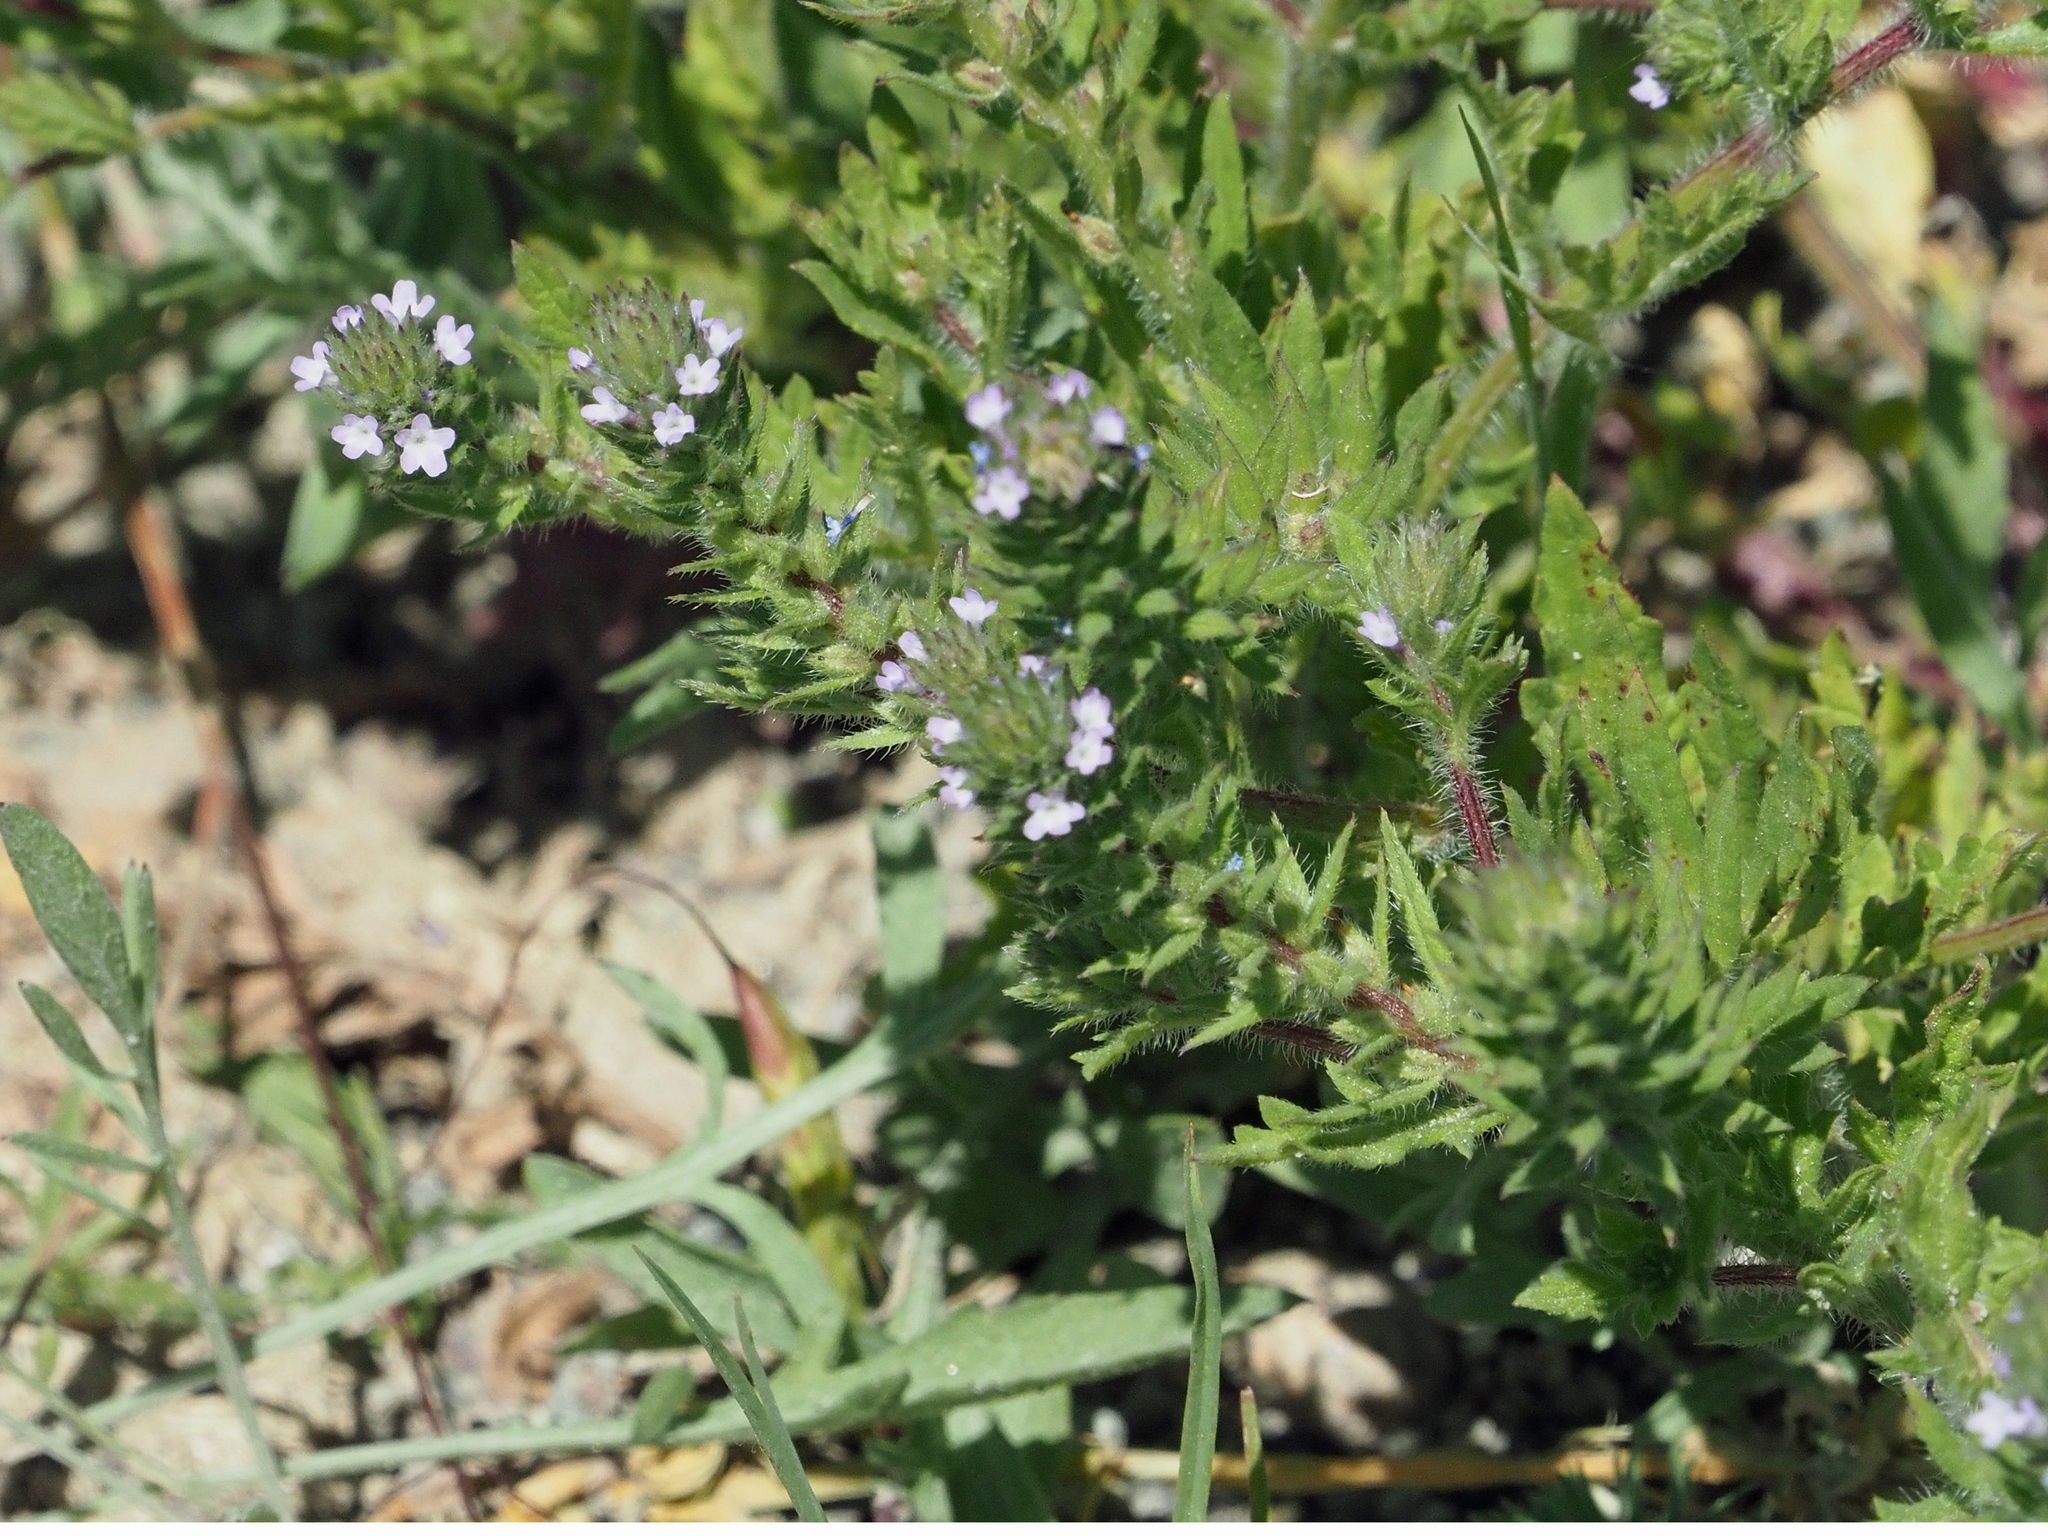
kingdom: Plantae
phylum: Tracheophyta
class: Magnoliopsida
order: Lamiales
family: Verbenaceae
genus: Verbena
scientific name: Verbena bracteata
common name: Bracted vervain
